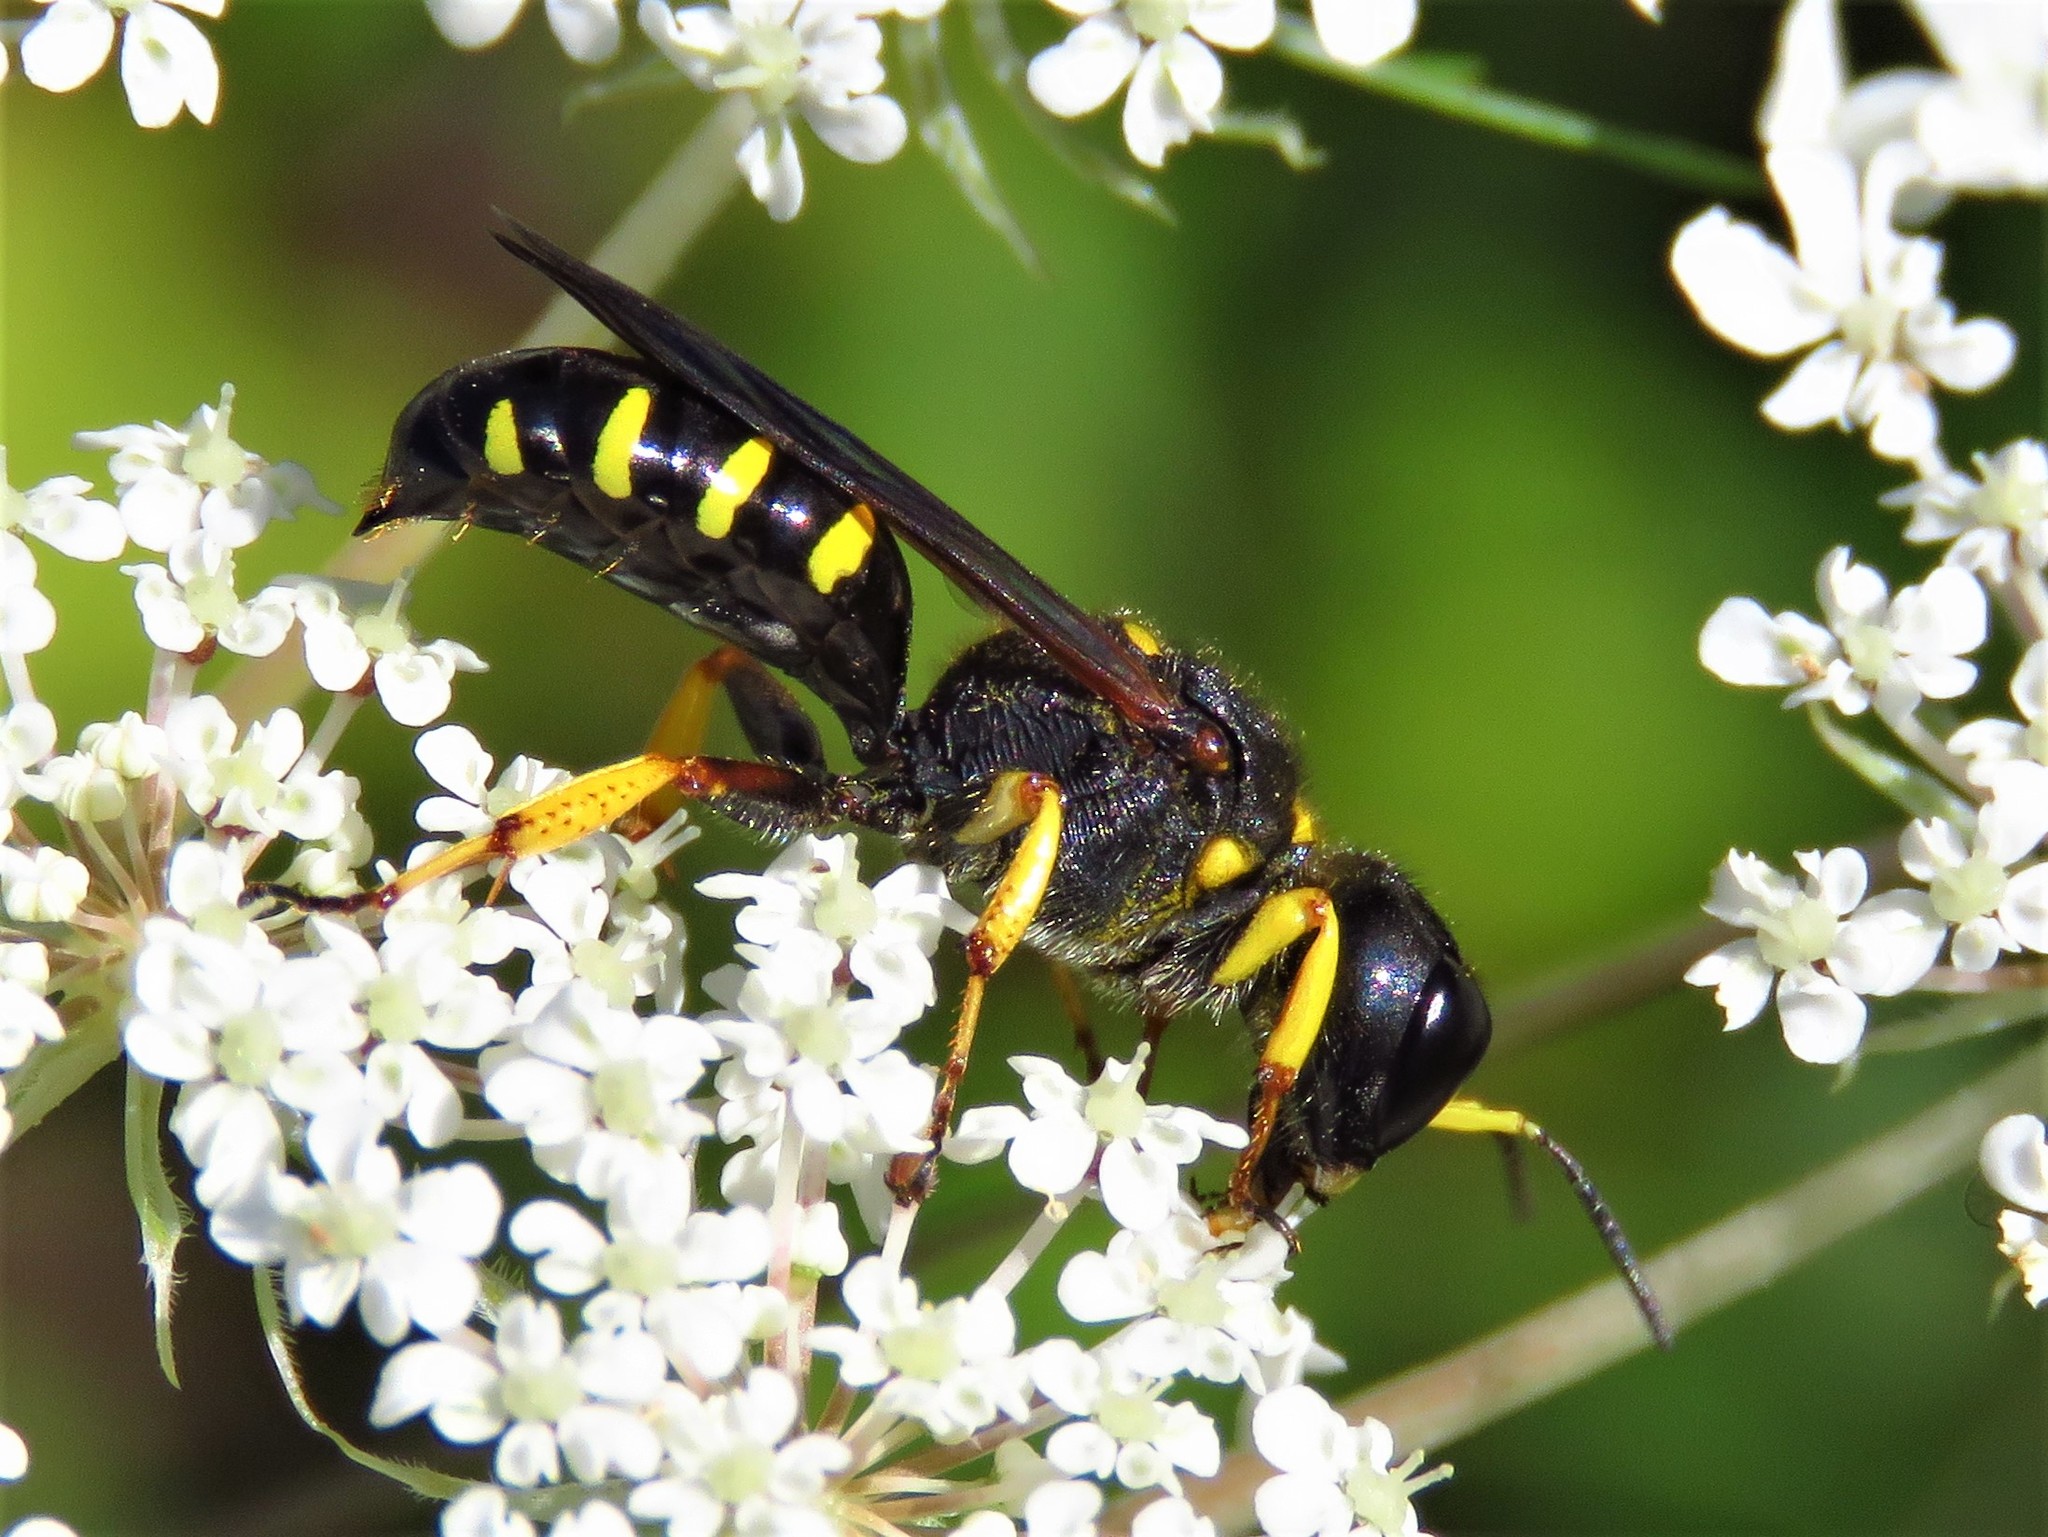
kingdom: Animalia
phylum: Arthropoda
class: Insecta
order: Hymenoptera
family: Crabronidae
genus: Ectemnius
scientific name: Ectemnius maculosus
